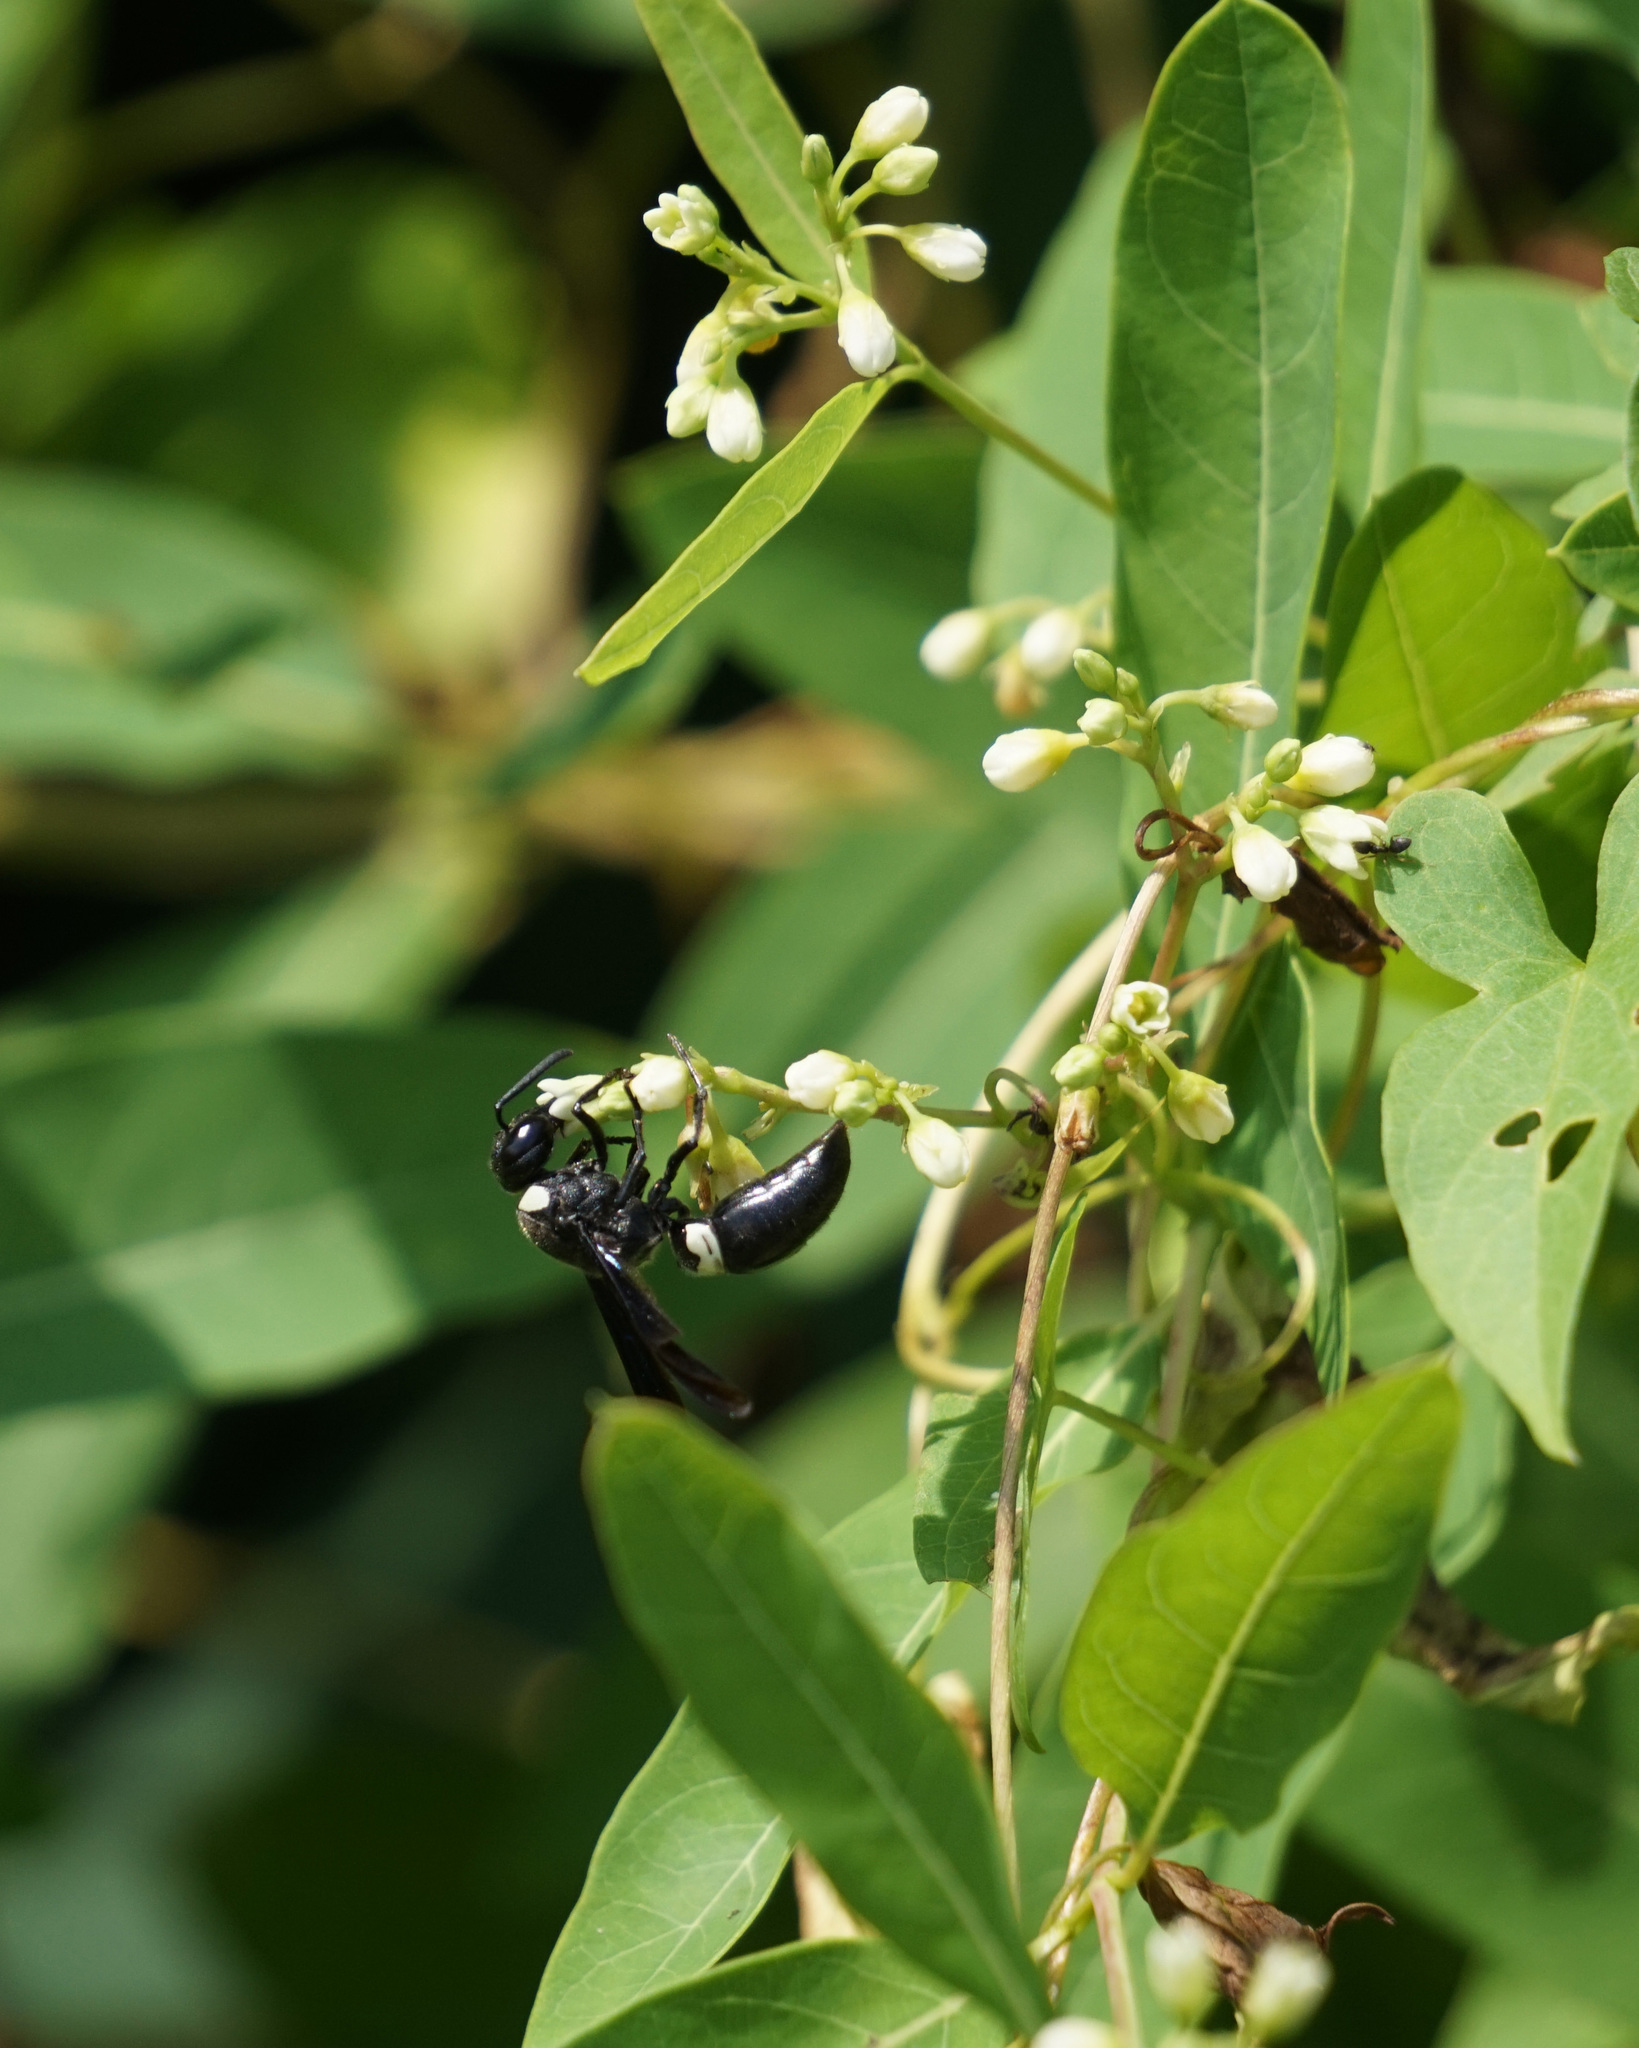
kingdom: Animalia
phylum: Arthropoda
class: Insecta
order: Hymenoptera
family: Eumenidae
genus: Monobia
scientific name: Monobia quadridens
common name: Four-toothed mason wasp
